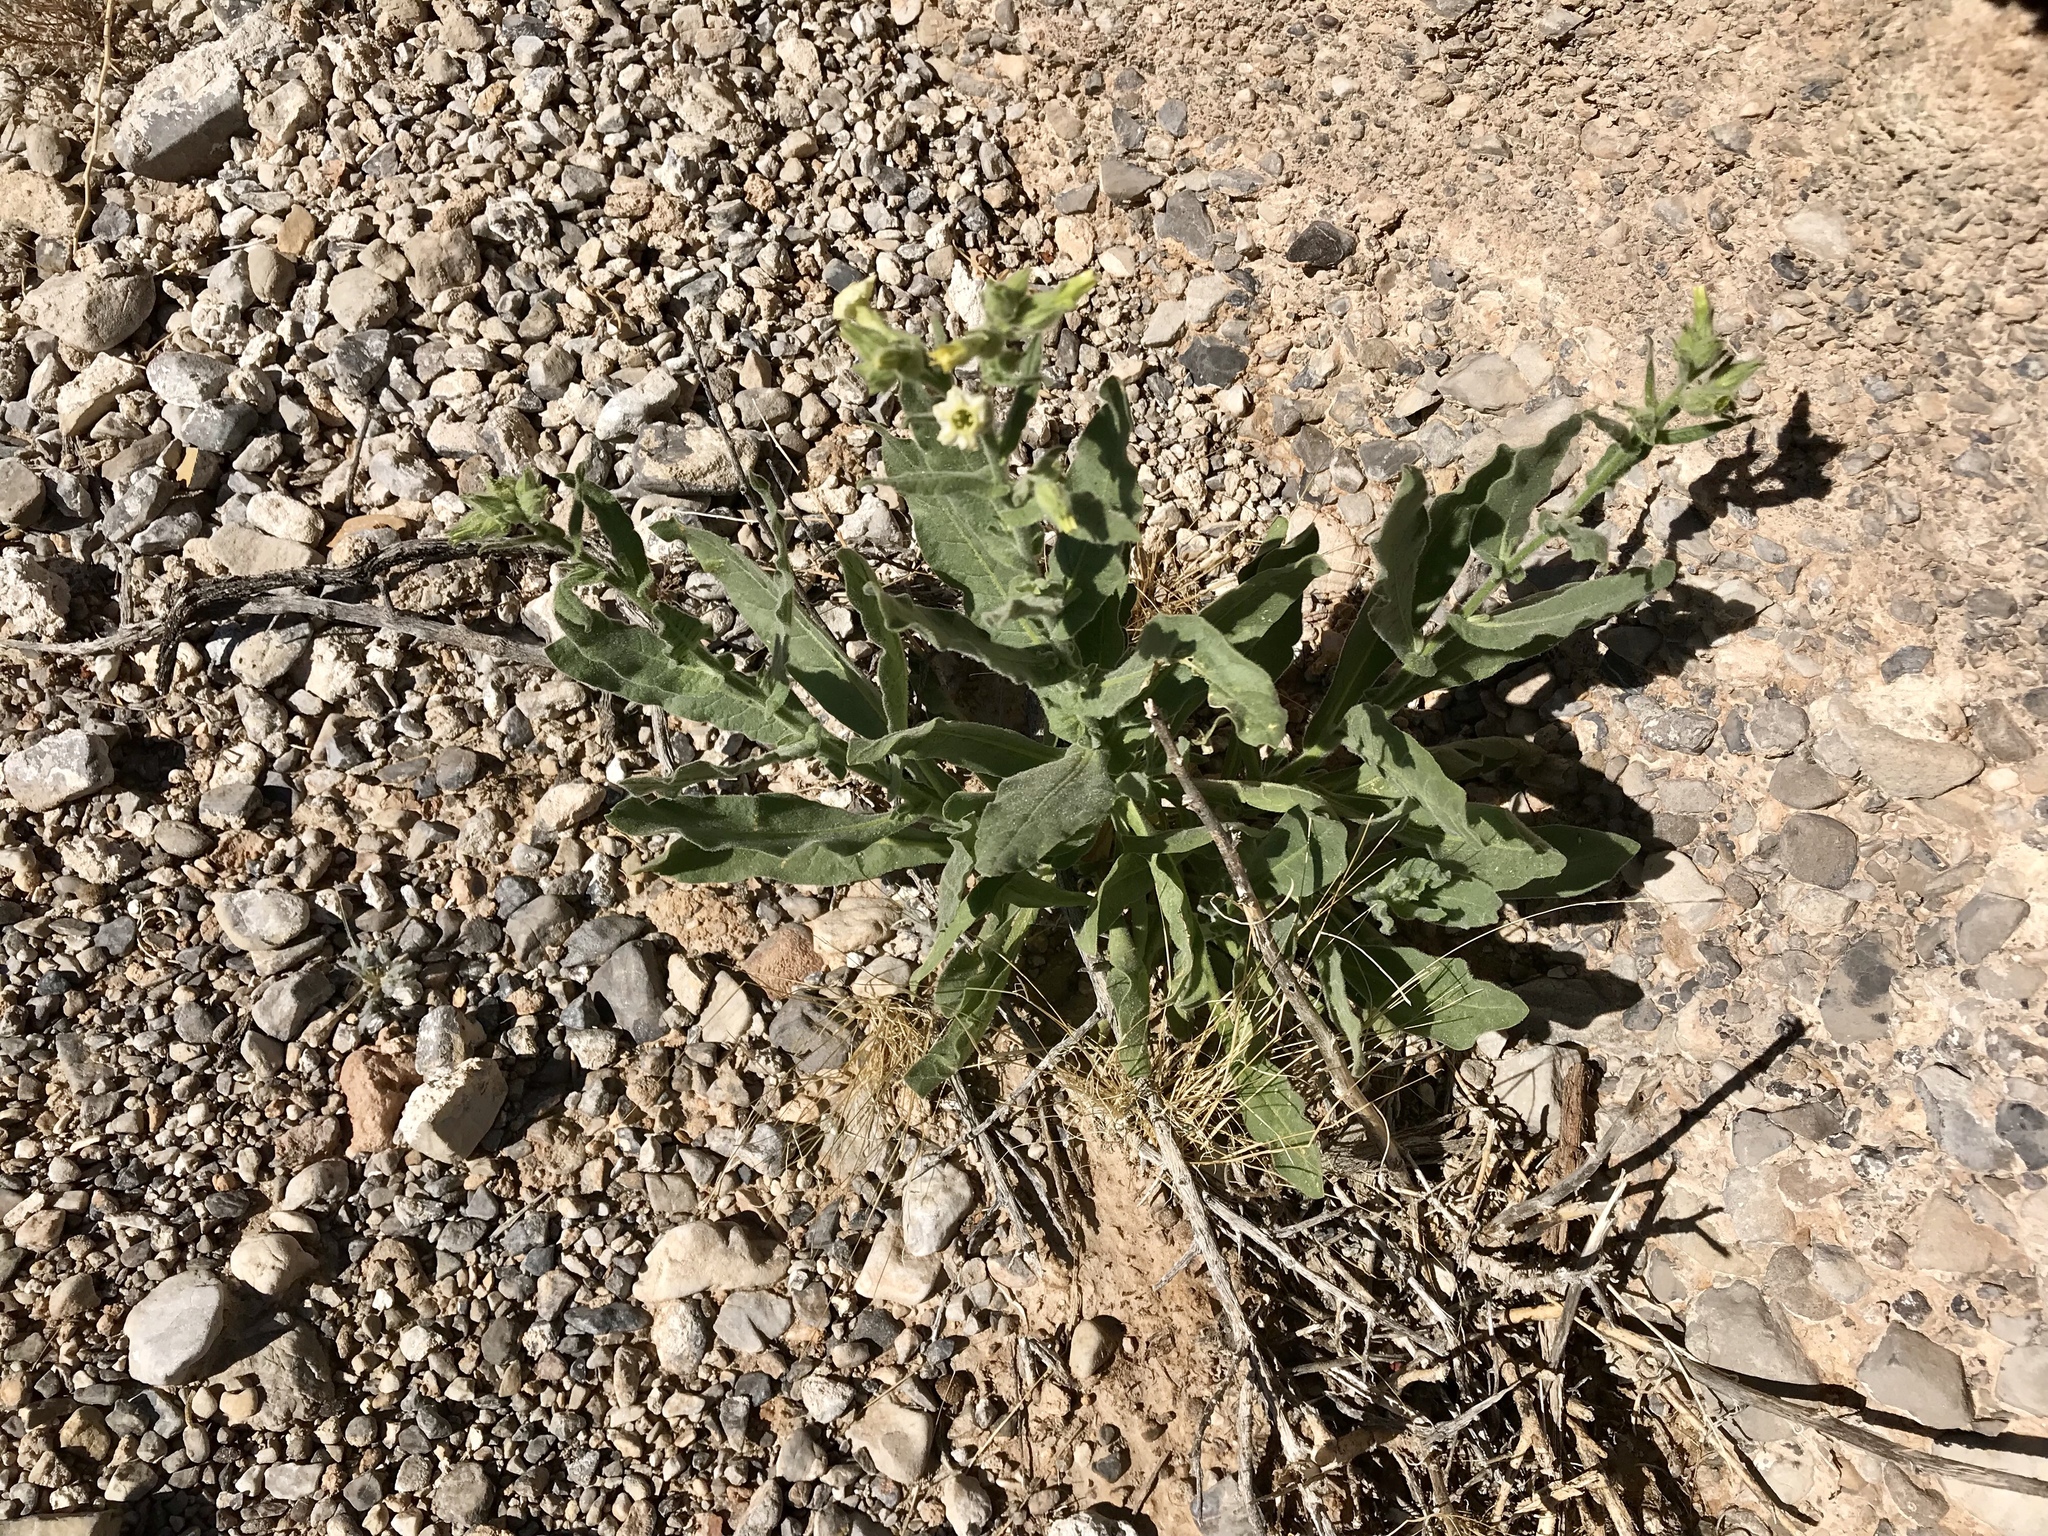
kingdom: Plantae
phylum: Tracheophyta
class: Magnoliopsida
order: Solanales
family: Solanaceae
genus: Nicotiana
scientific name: Nicotiana obtusifolia
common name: Desert tobacco
